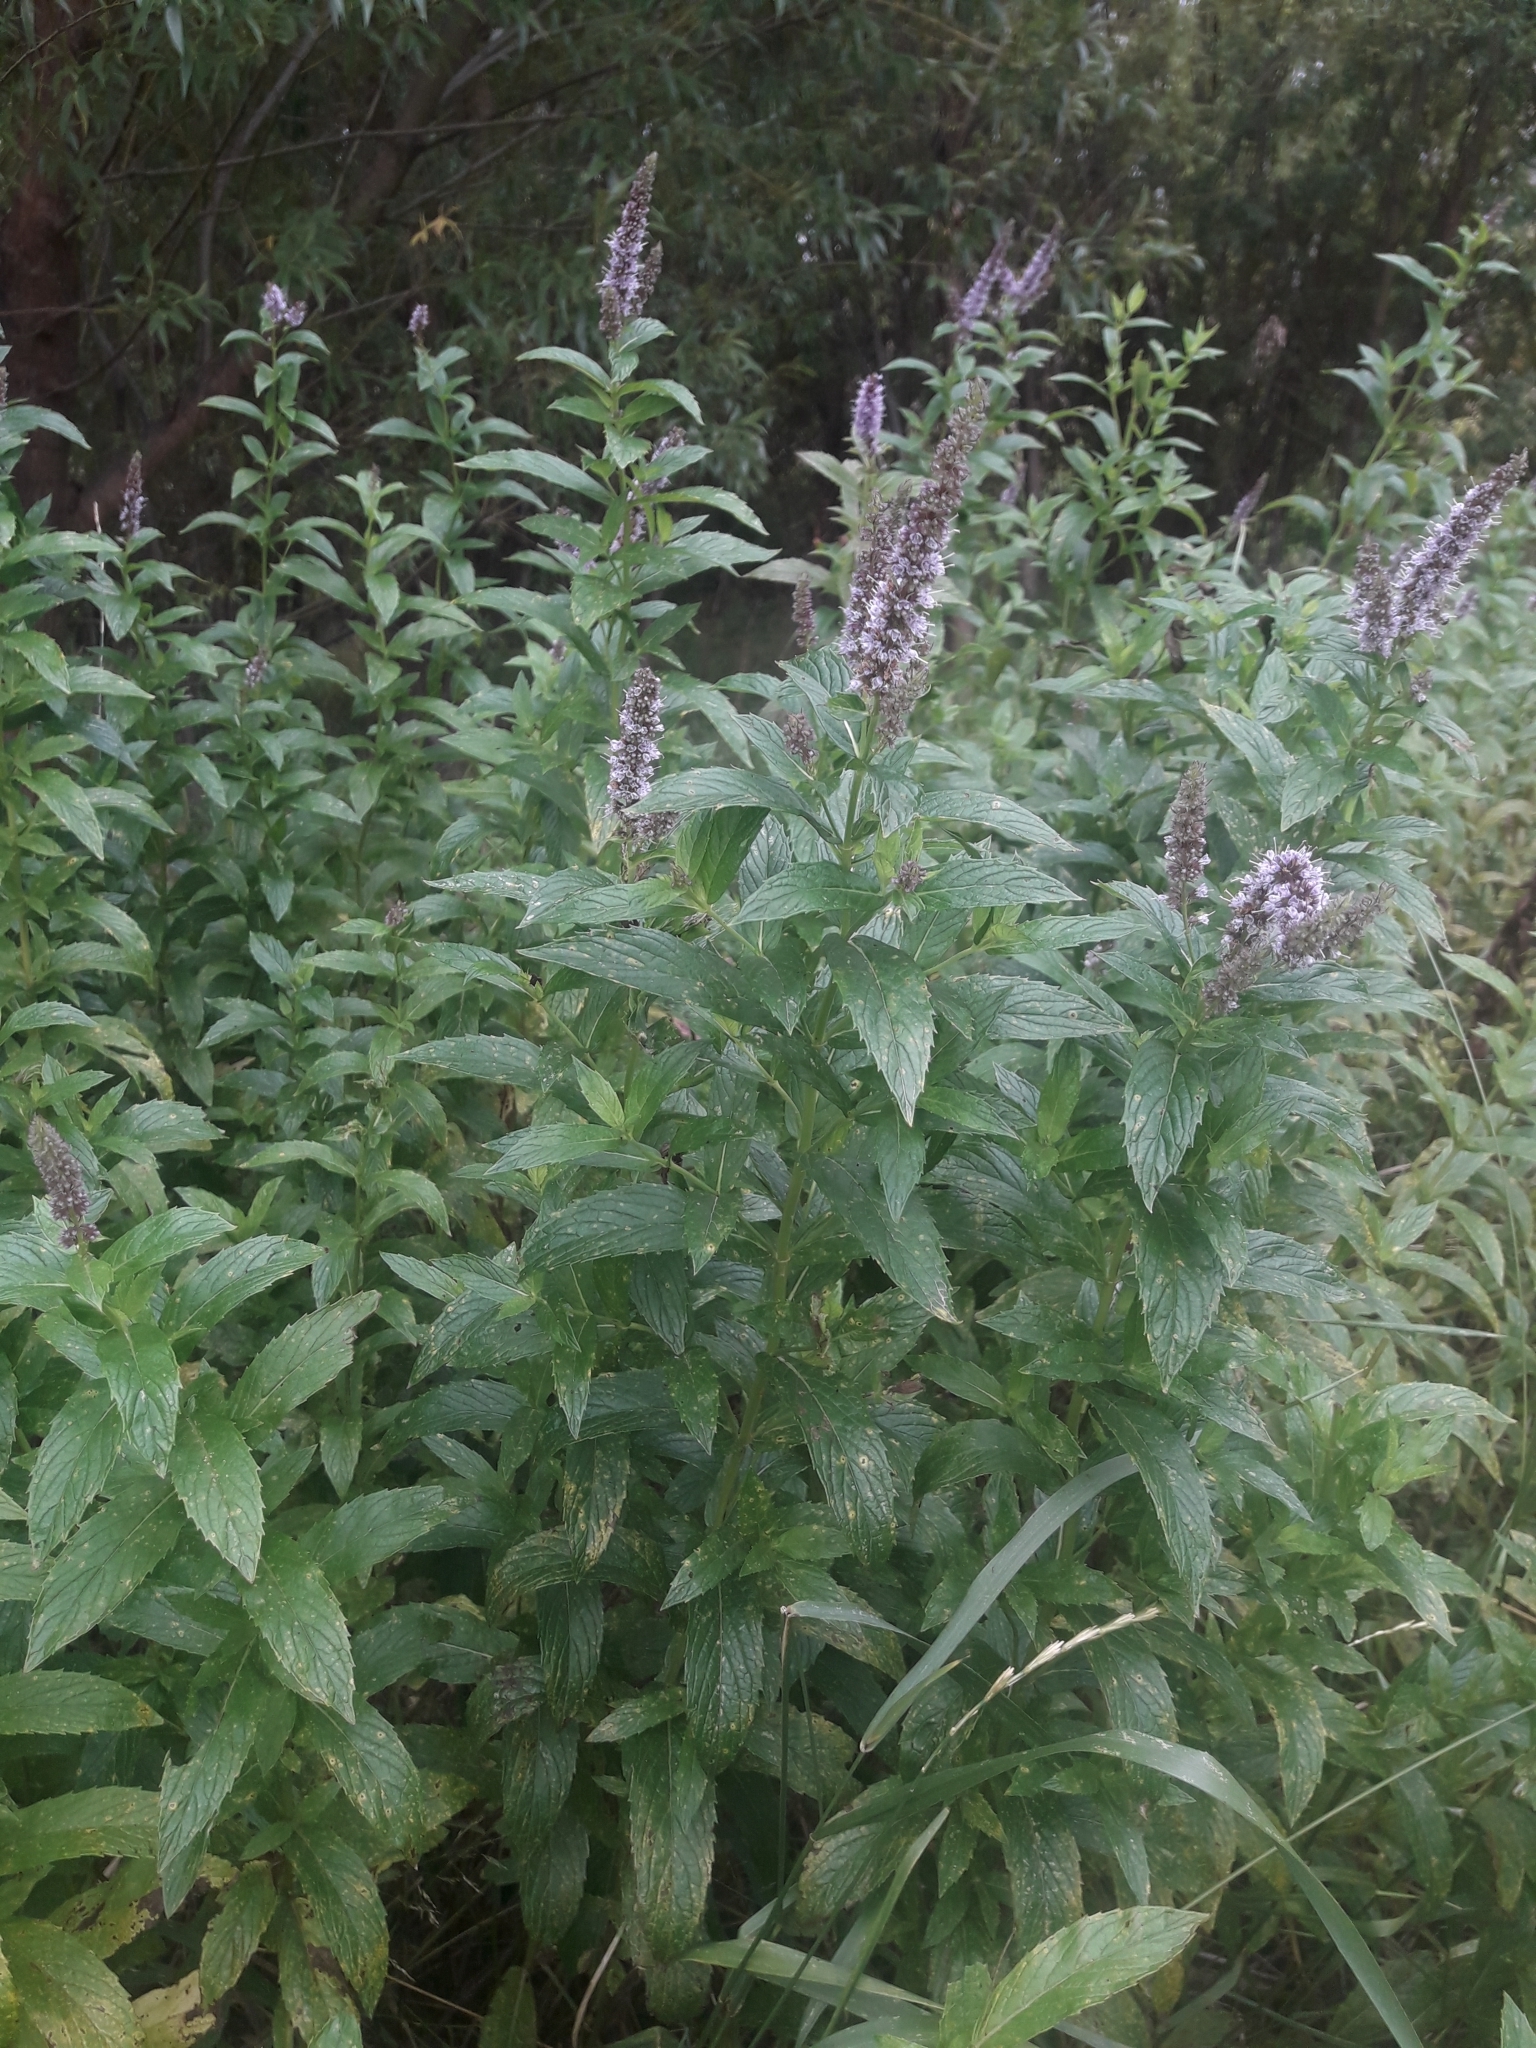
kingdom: Plantae
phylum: Tracheophyta
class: Magnoliopsida
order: Lamiales
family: Lamiaceae
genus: Mentha
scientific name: Mentha spicata
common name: Spearmint
